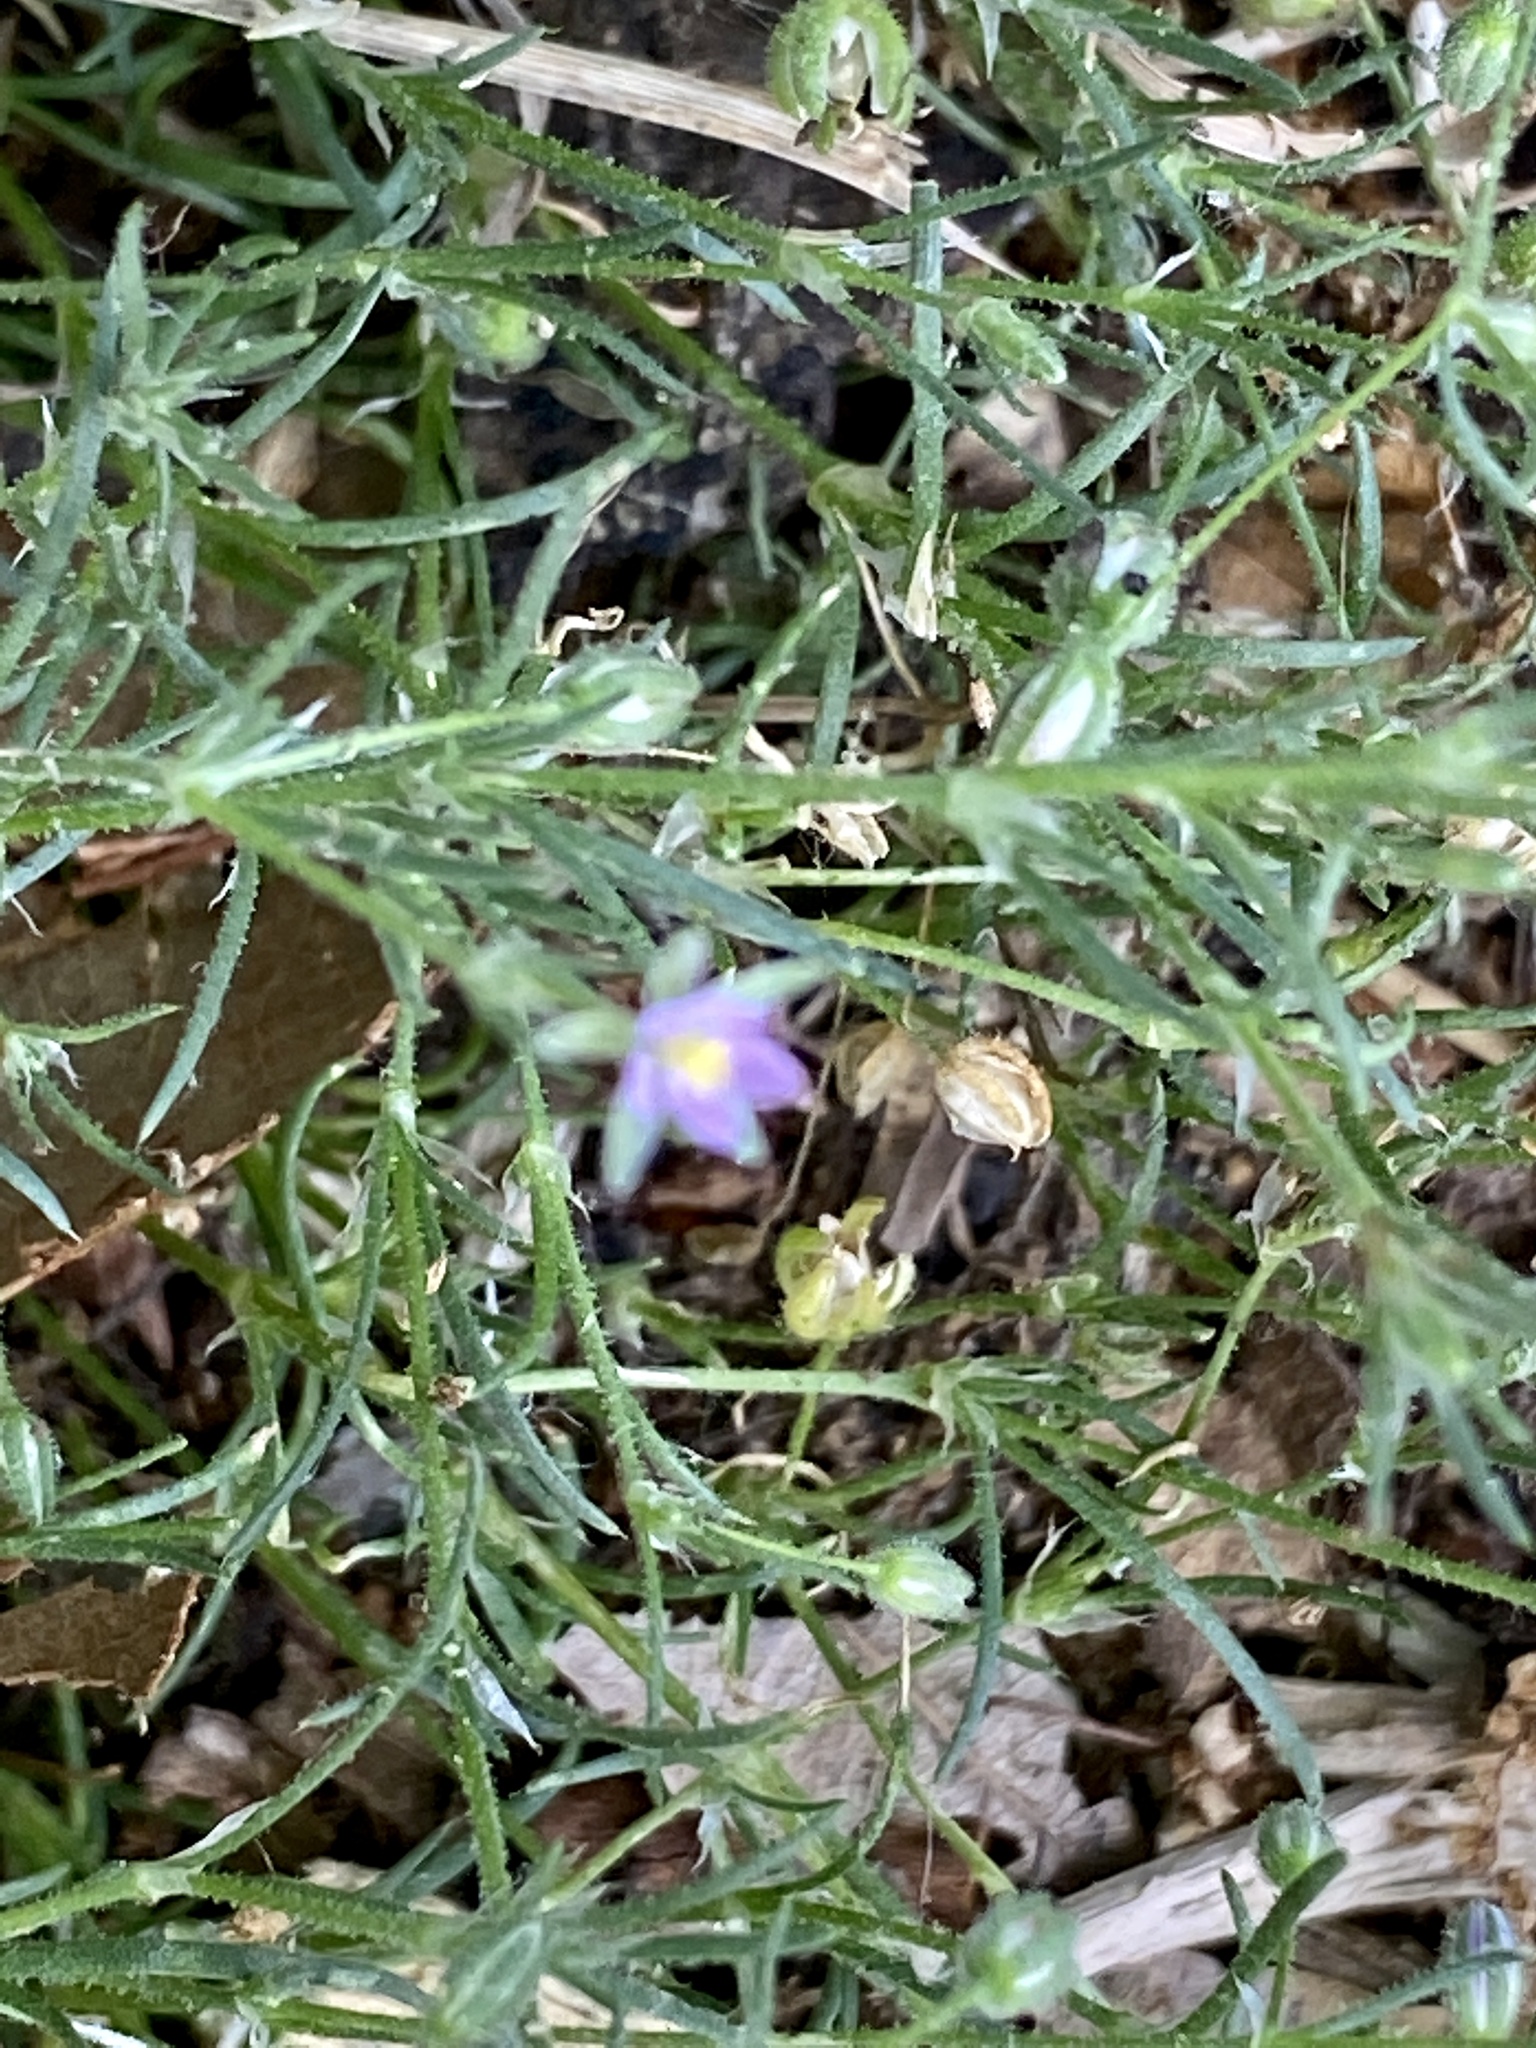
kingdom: Plantae
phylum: Tracheophyta
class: Magnoliopsida
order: Caryophyllales
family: Caryophyllaceae
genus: Spergularia
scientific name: Spergularia rubra
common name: Red sand-spurrey
